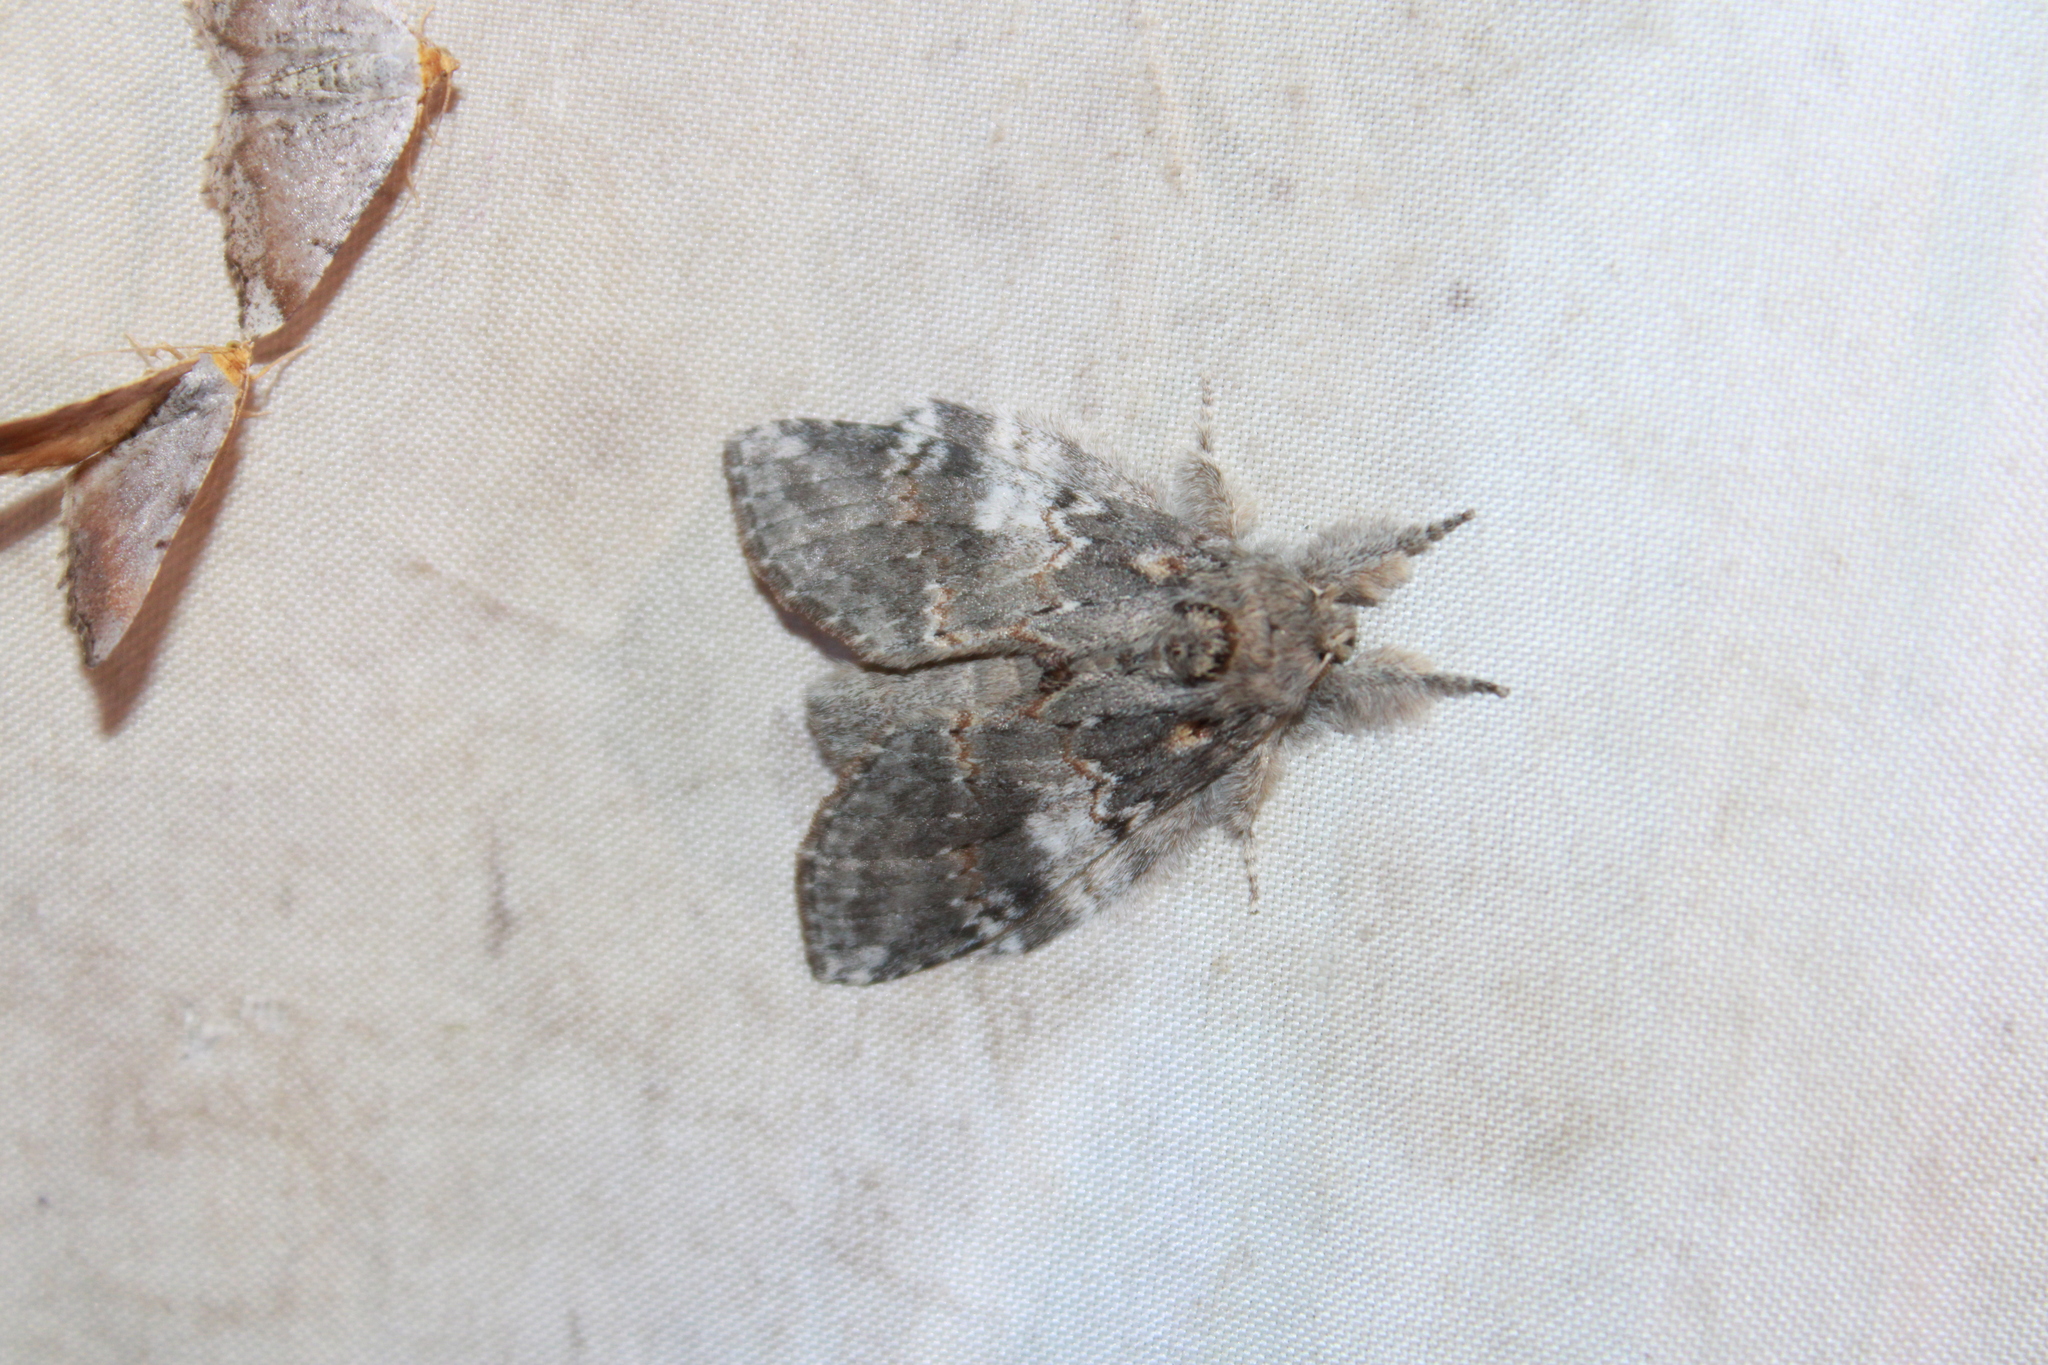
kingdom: Animalia
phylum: Arthropoda
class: Insecta
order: Lepidoptera
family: Notodontidae
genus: Peridea
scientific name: Peridea angulosa
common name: Angulose prominent
